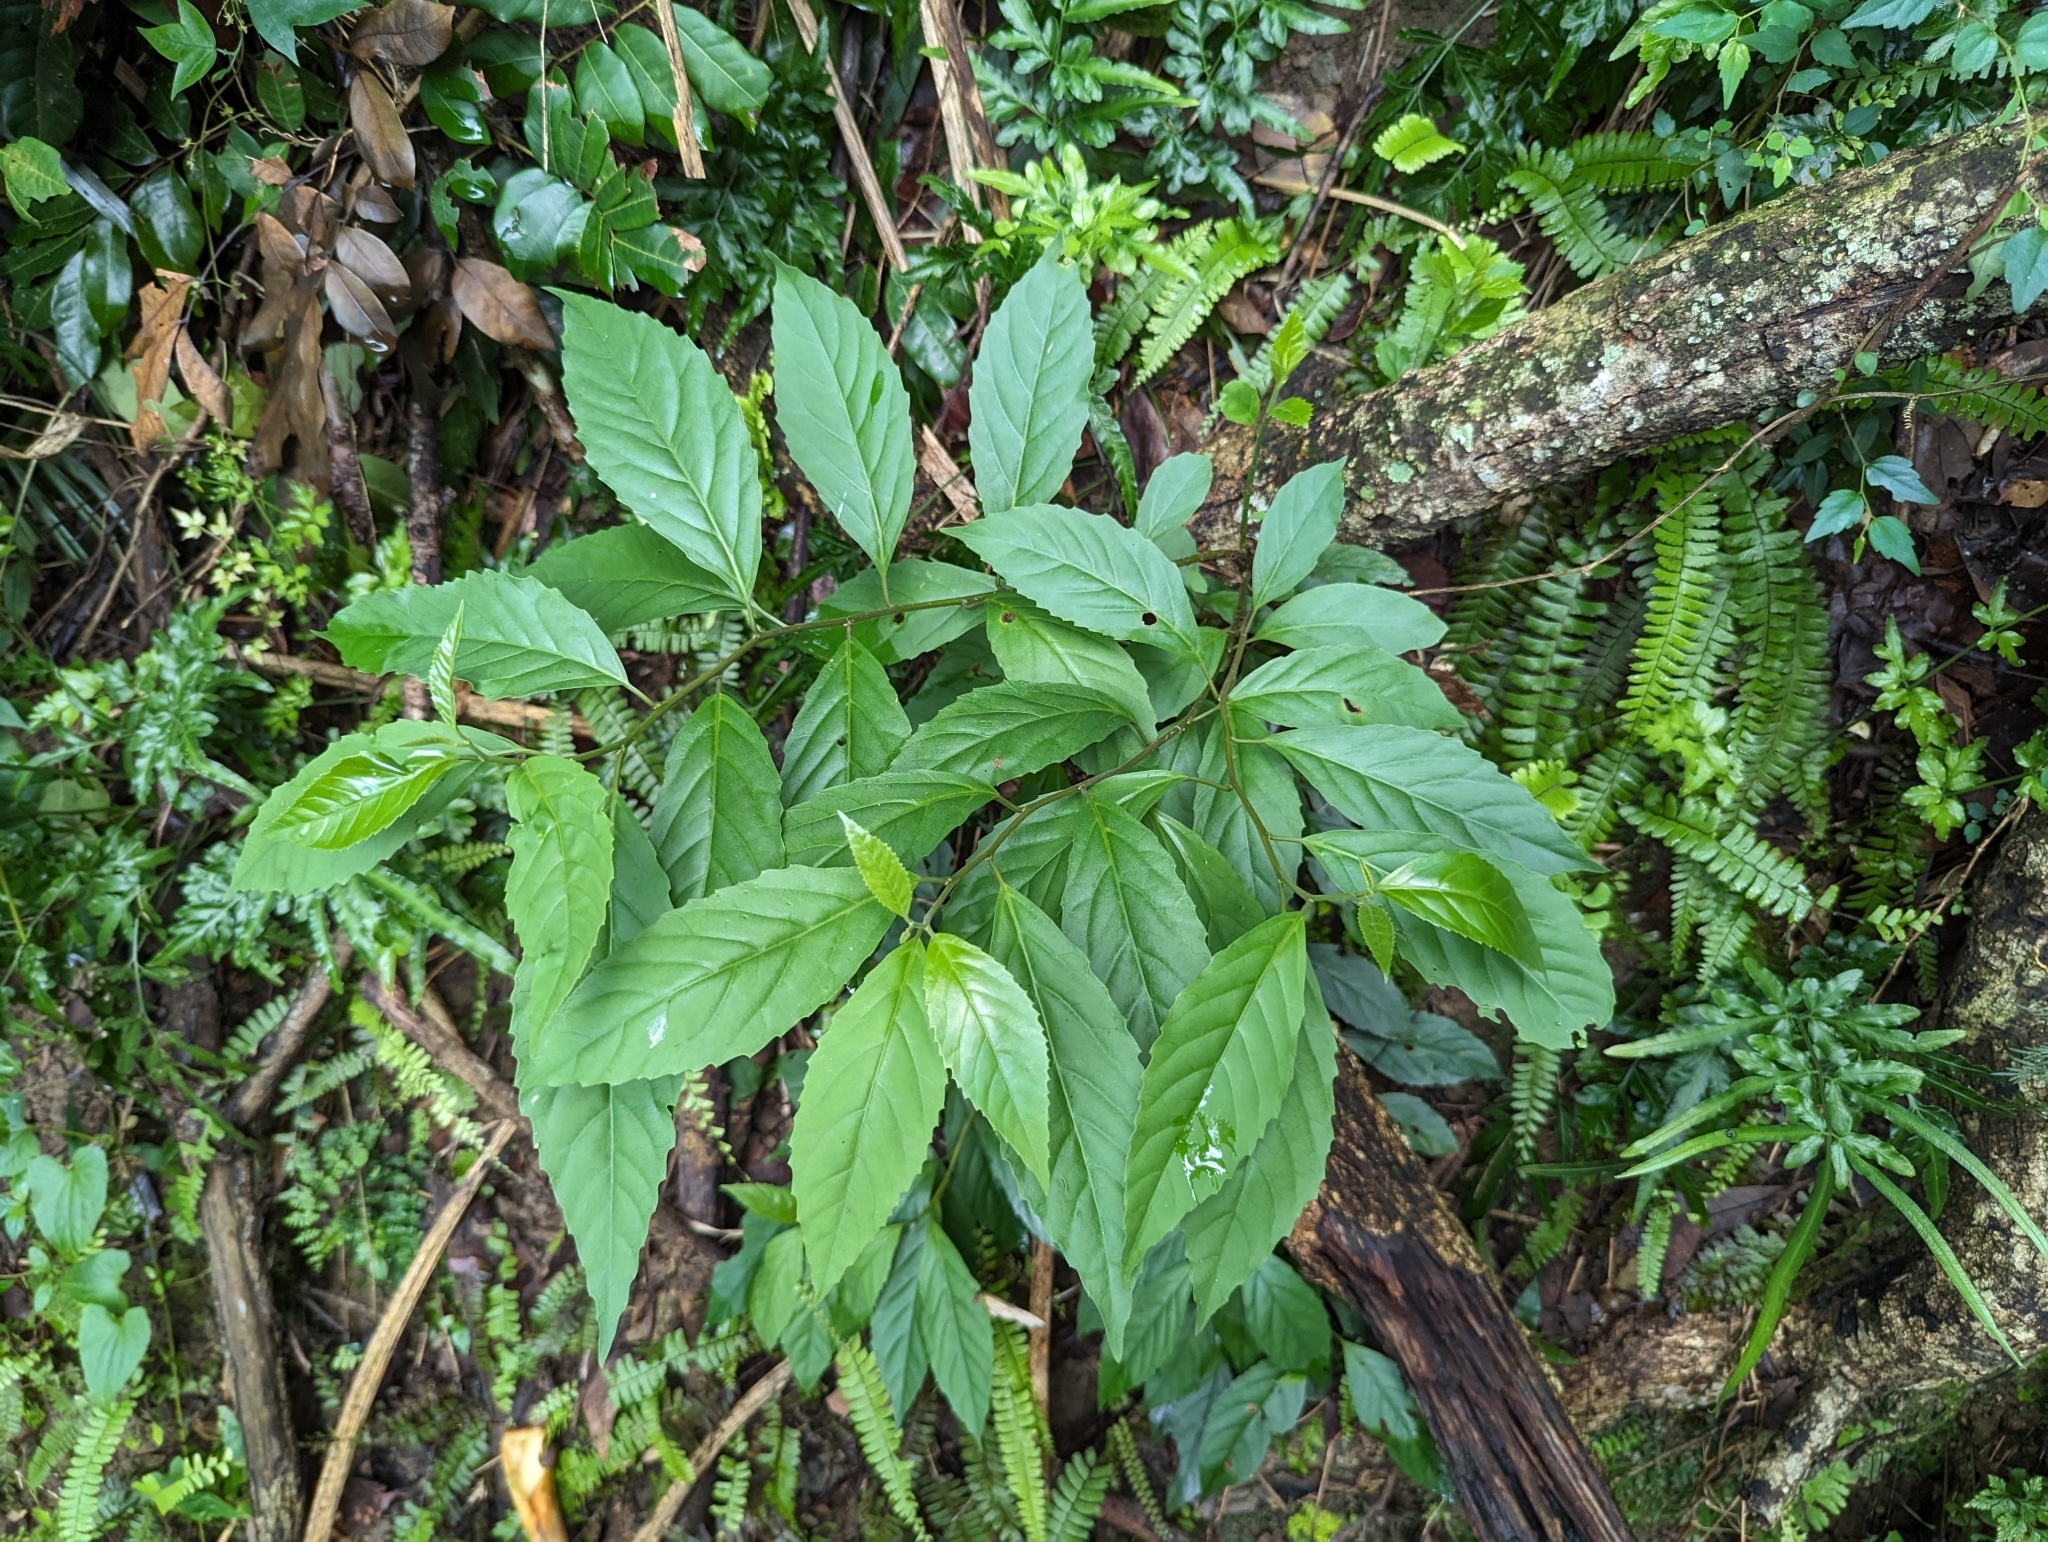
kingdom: Plantae
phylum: Tracheophyta
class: Magnoliopsida
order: Ericales
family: Primulaceae
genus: Maesa
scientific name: Maesa perlaria
